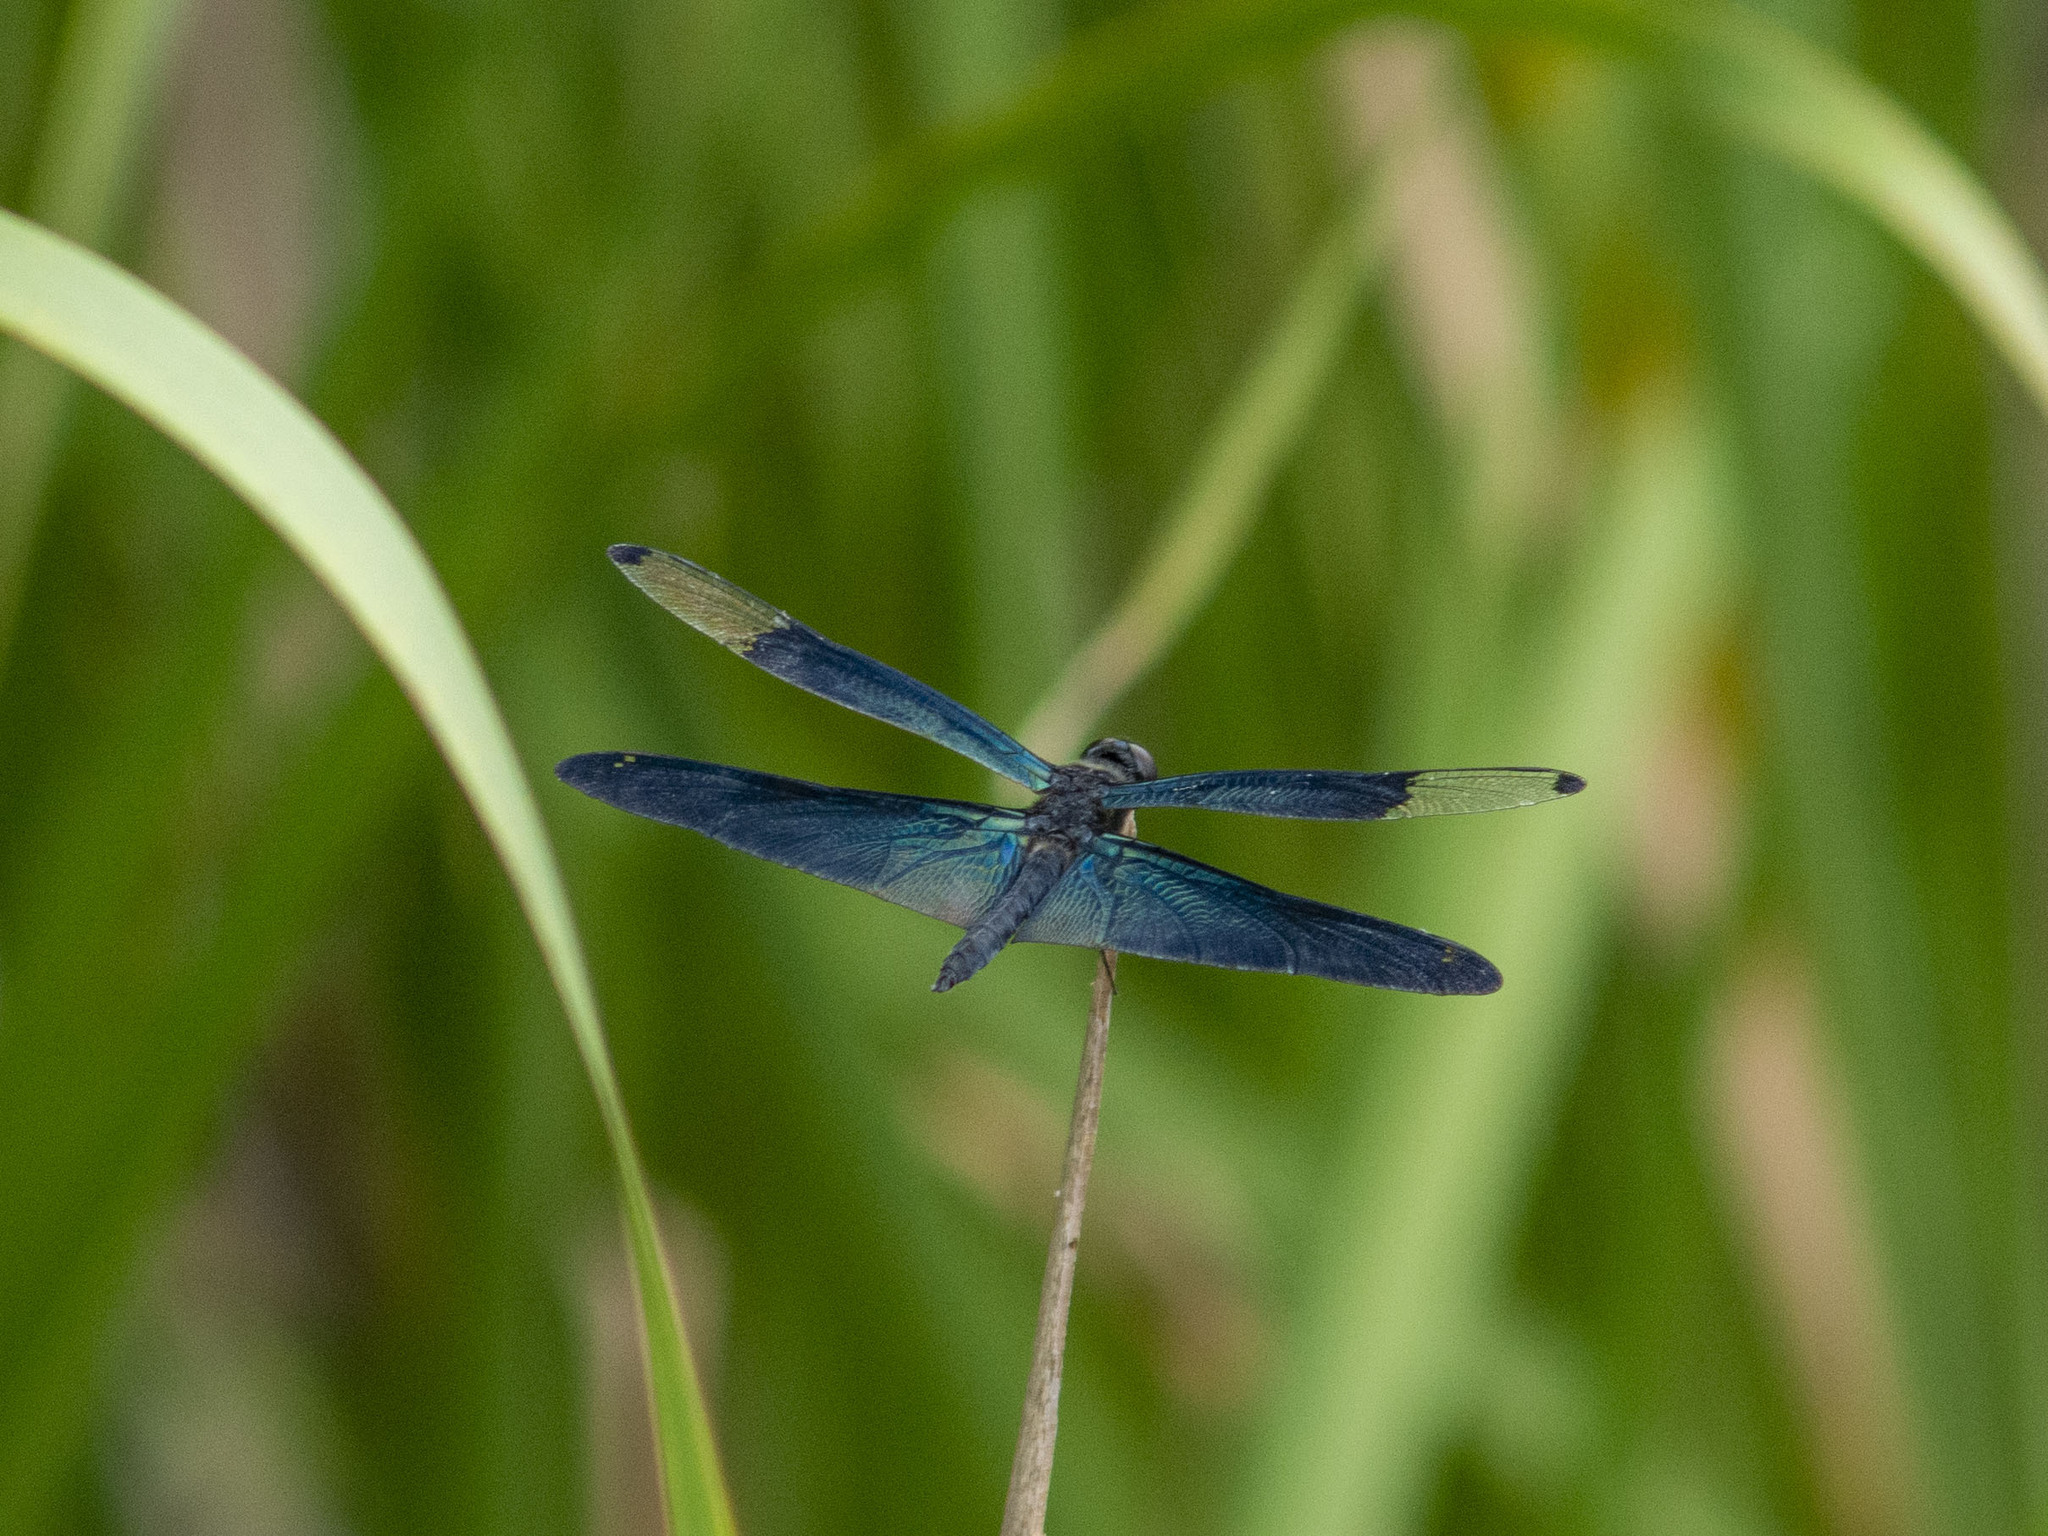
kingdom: Animalia
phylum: Arthropoda
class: Insecta
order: Odonata
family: Libellulidae
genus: Rhyothemis
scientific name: Rhyothemis fuliginosa
